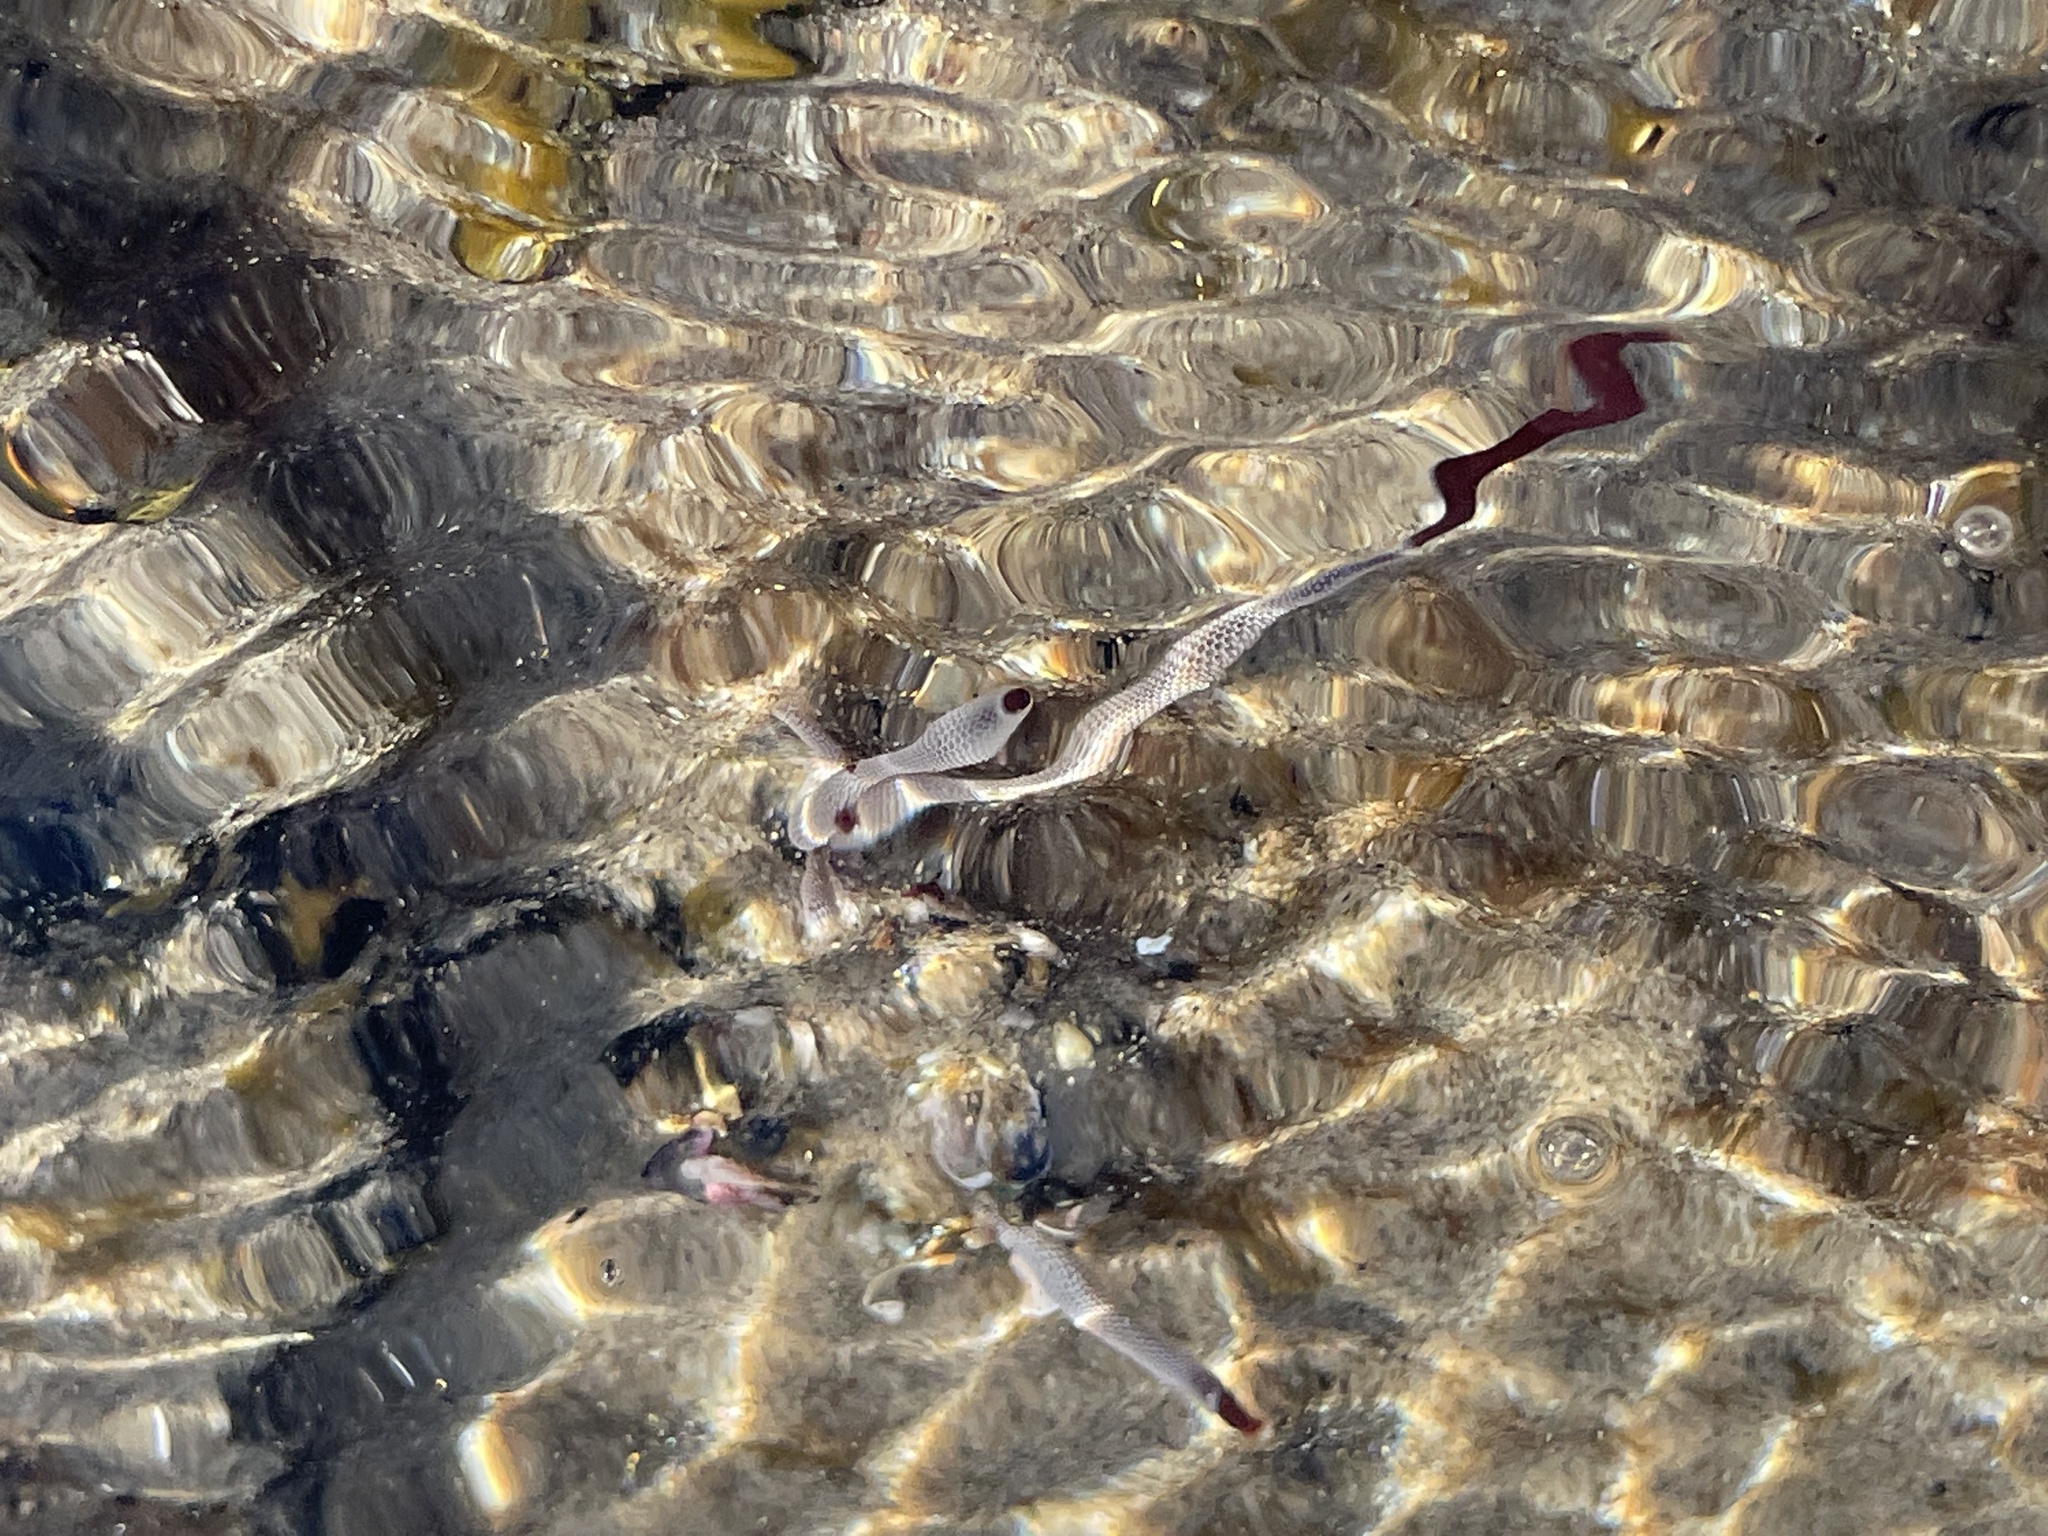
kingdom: Animalia
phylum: Bryozoa
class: Gymnolaemata
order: Cheilostomatida
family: Membraniporidae
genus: Jellyella
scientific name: Jellyella tuberculata
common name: Sargassum bryozoan
